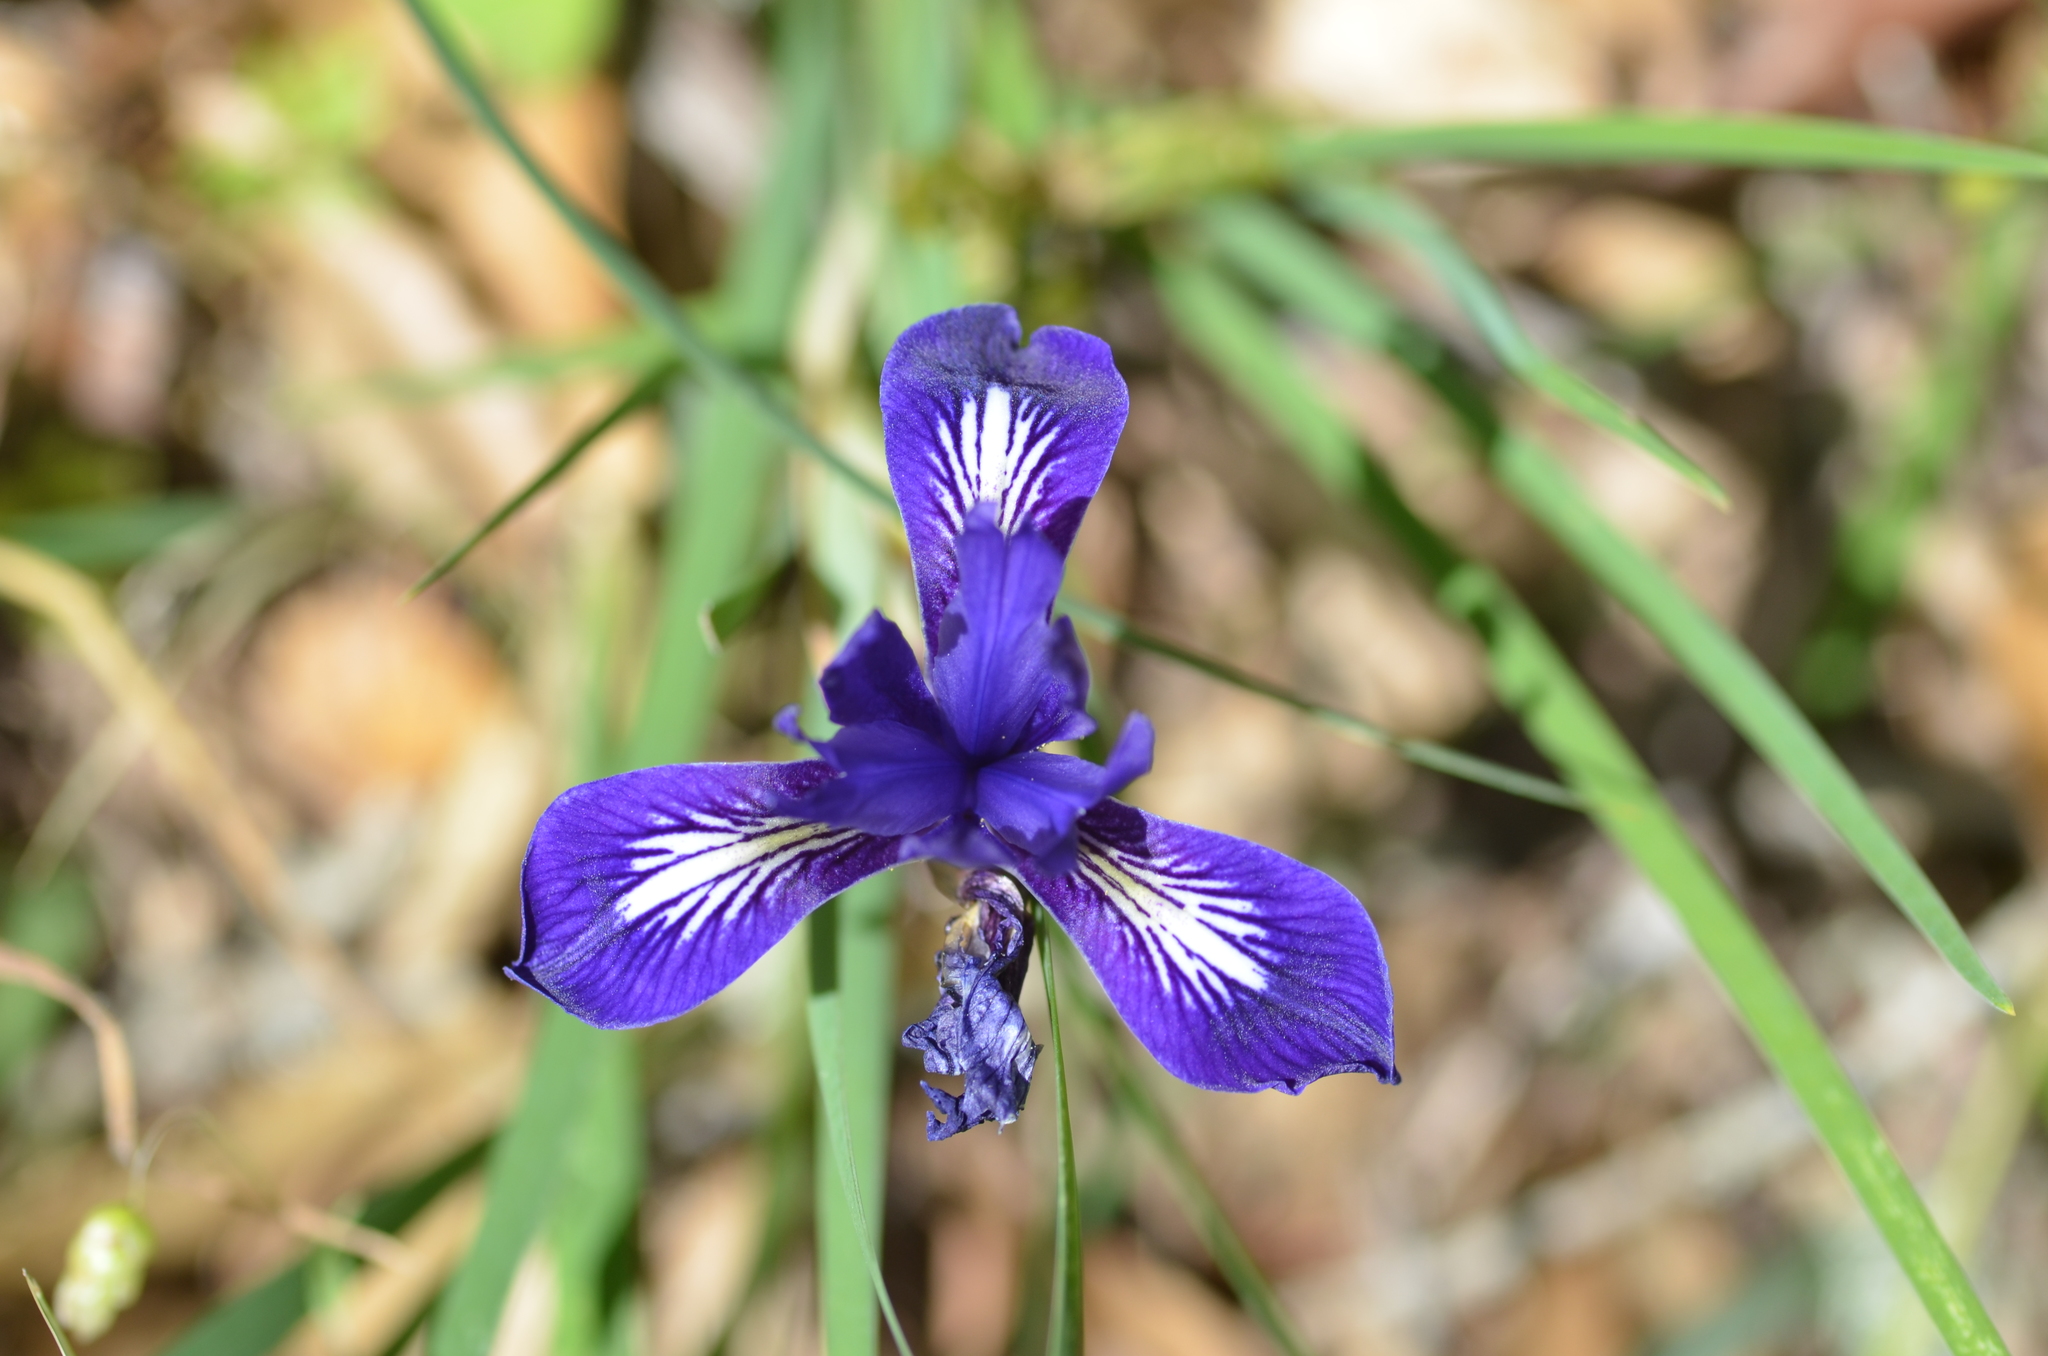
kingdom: Plantae
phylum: Tracheophyta
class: Liliopsida
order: Asparagales
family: Iridaceae
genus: Iris
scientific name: Iris macrosiphon
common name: Ground iris
